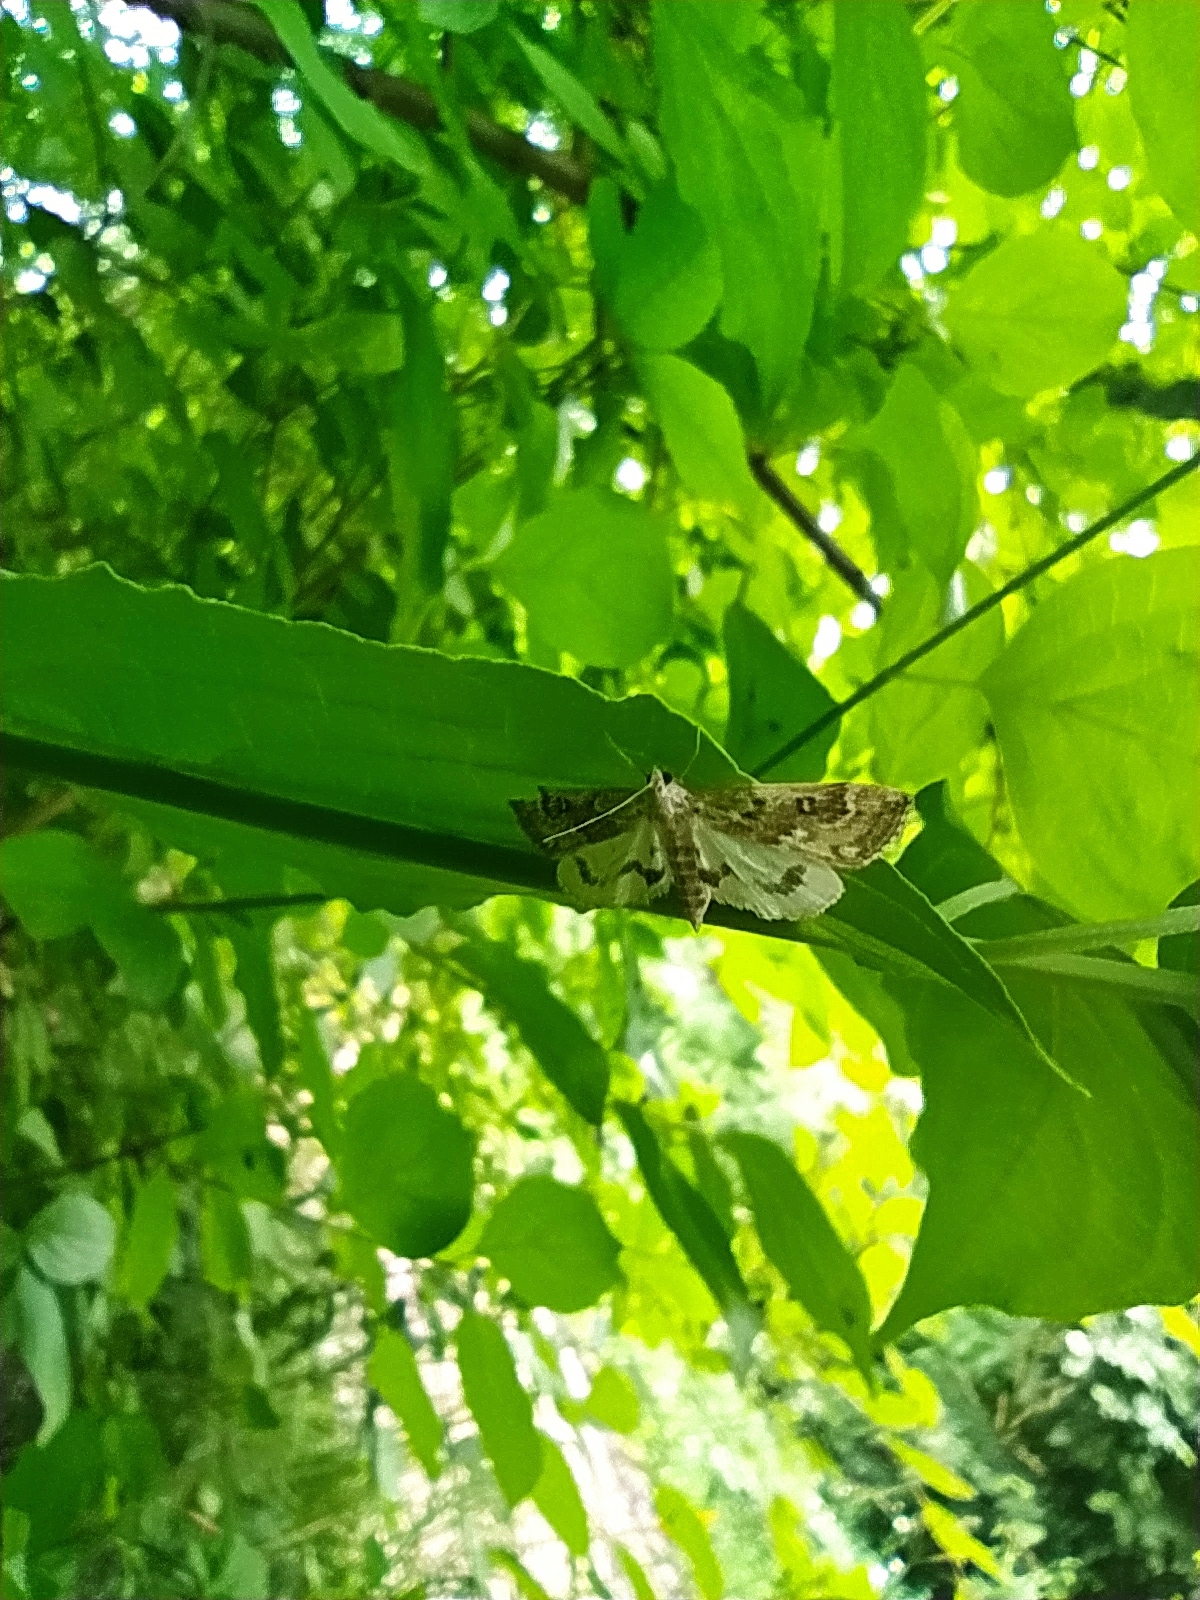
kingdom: Animalia
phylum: Arthropoda
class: Insecta
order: Lepidoptera
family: Crambidae
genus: Parapoynx
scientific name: Parapoynx stratiotata
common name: Ringed china-mark
